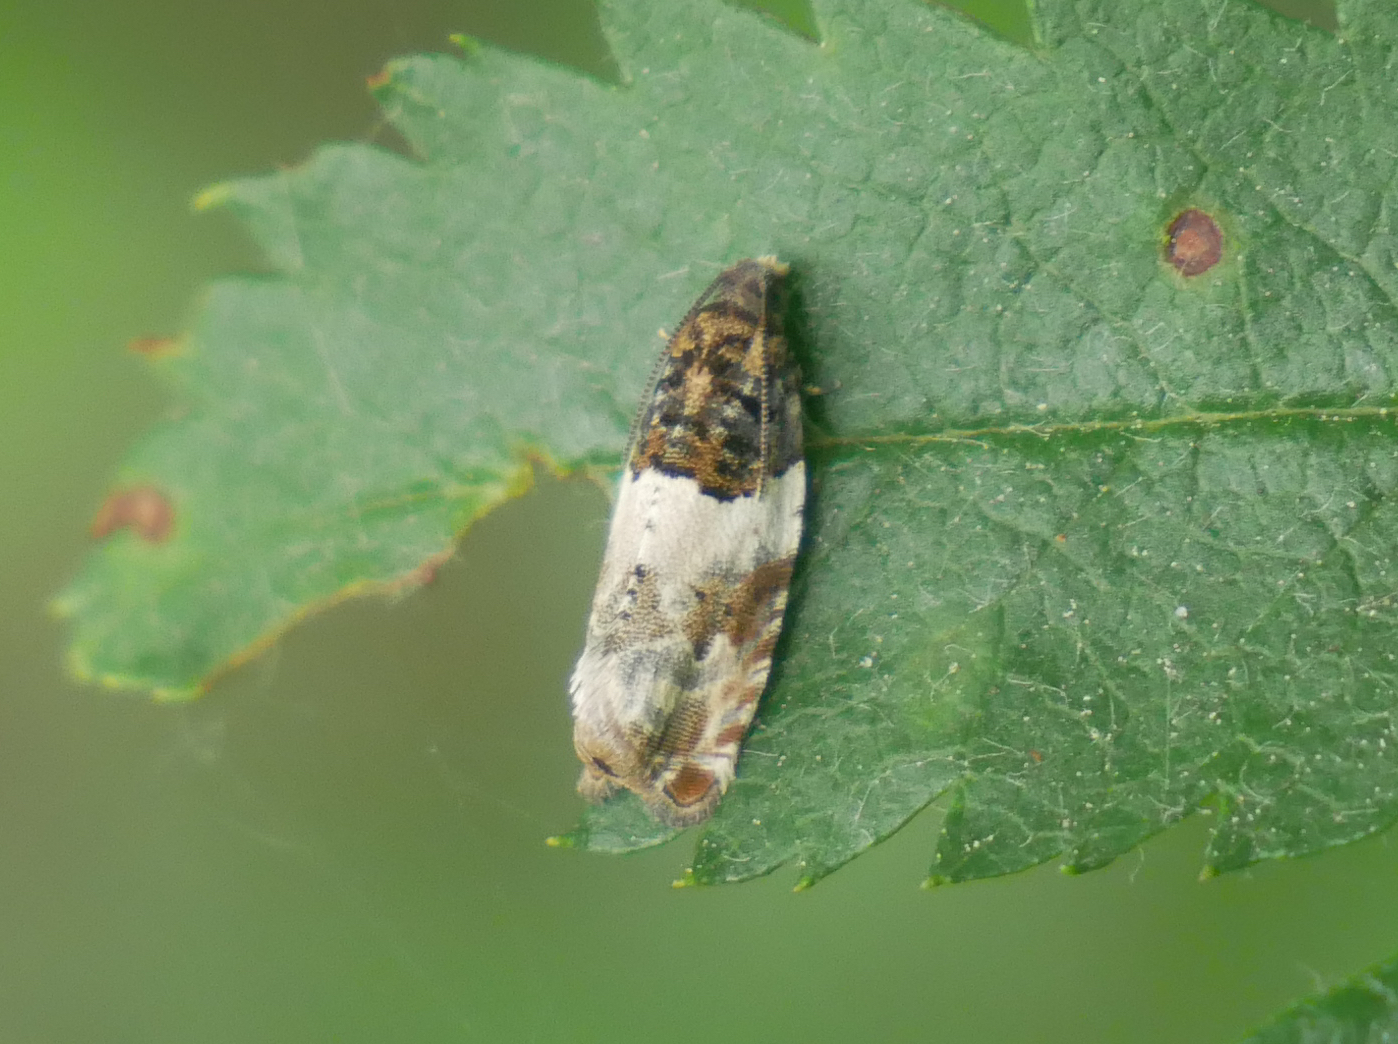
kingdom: Animalia
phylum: Arthropoda
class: Insecta
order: Lepidoptera
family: Tortricidae
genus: Gypsonoma
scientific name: Gypsonoma dealbana
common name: Common cloaked shoot
